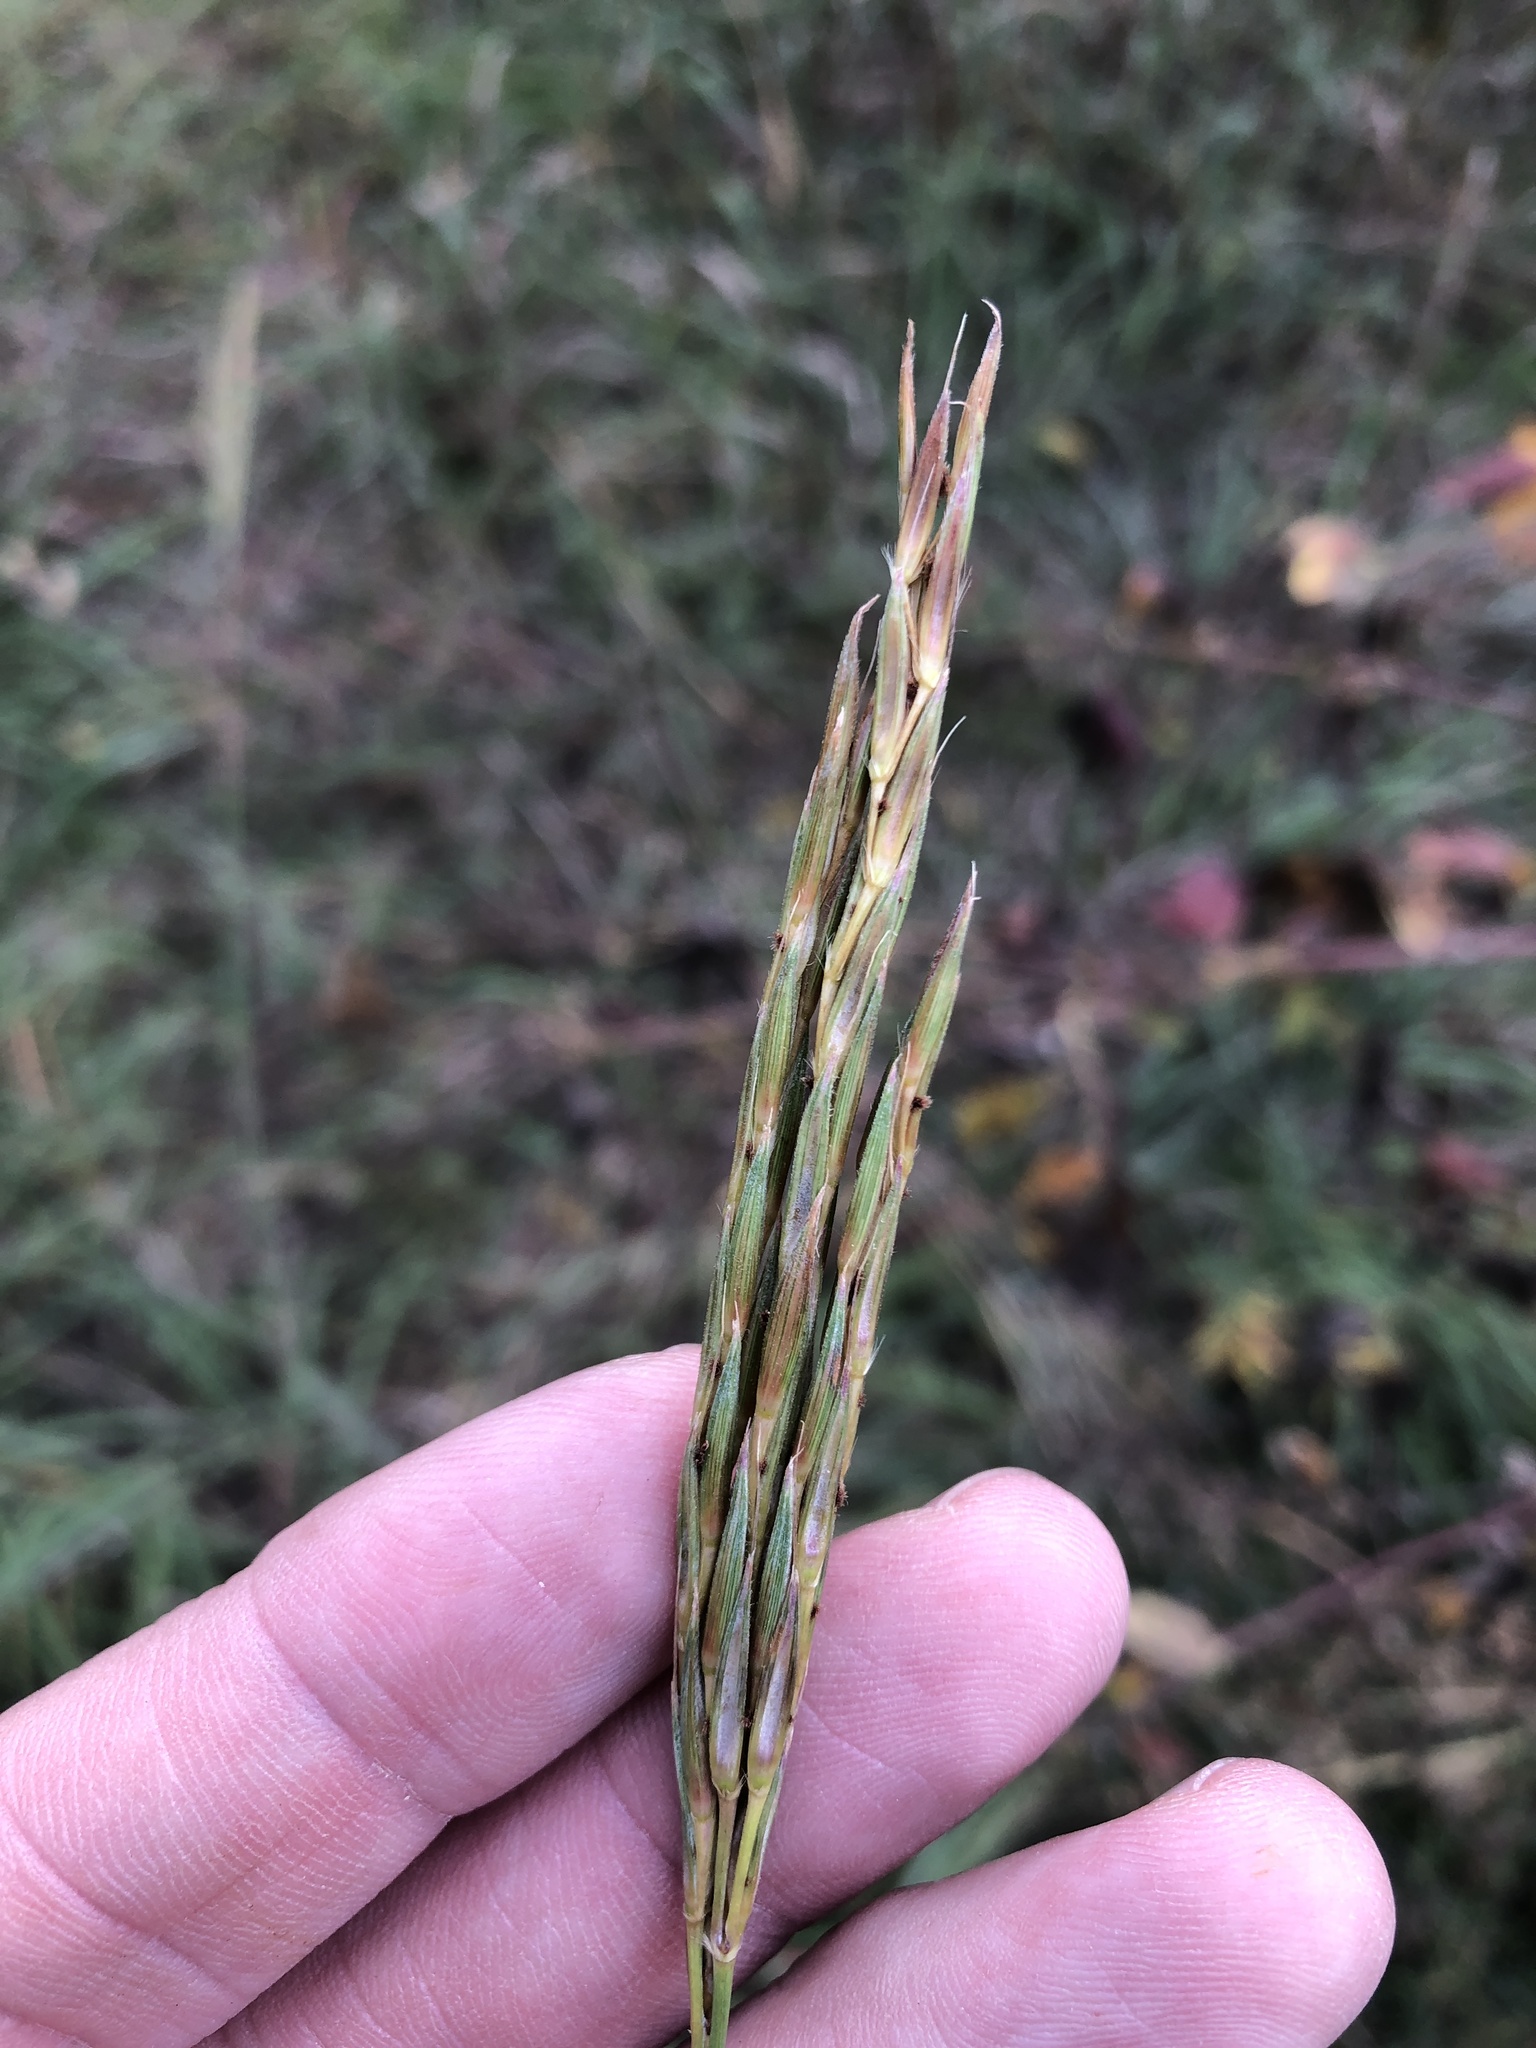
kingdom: Plantae
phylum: Tracheophyta
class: Liliopsida
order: Poales
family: Poaceae
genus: Andropogon
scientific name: Andropogon gerardi
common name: Big bluestem
